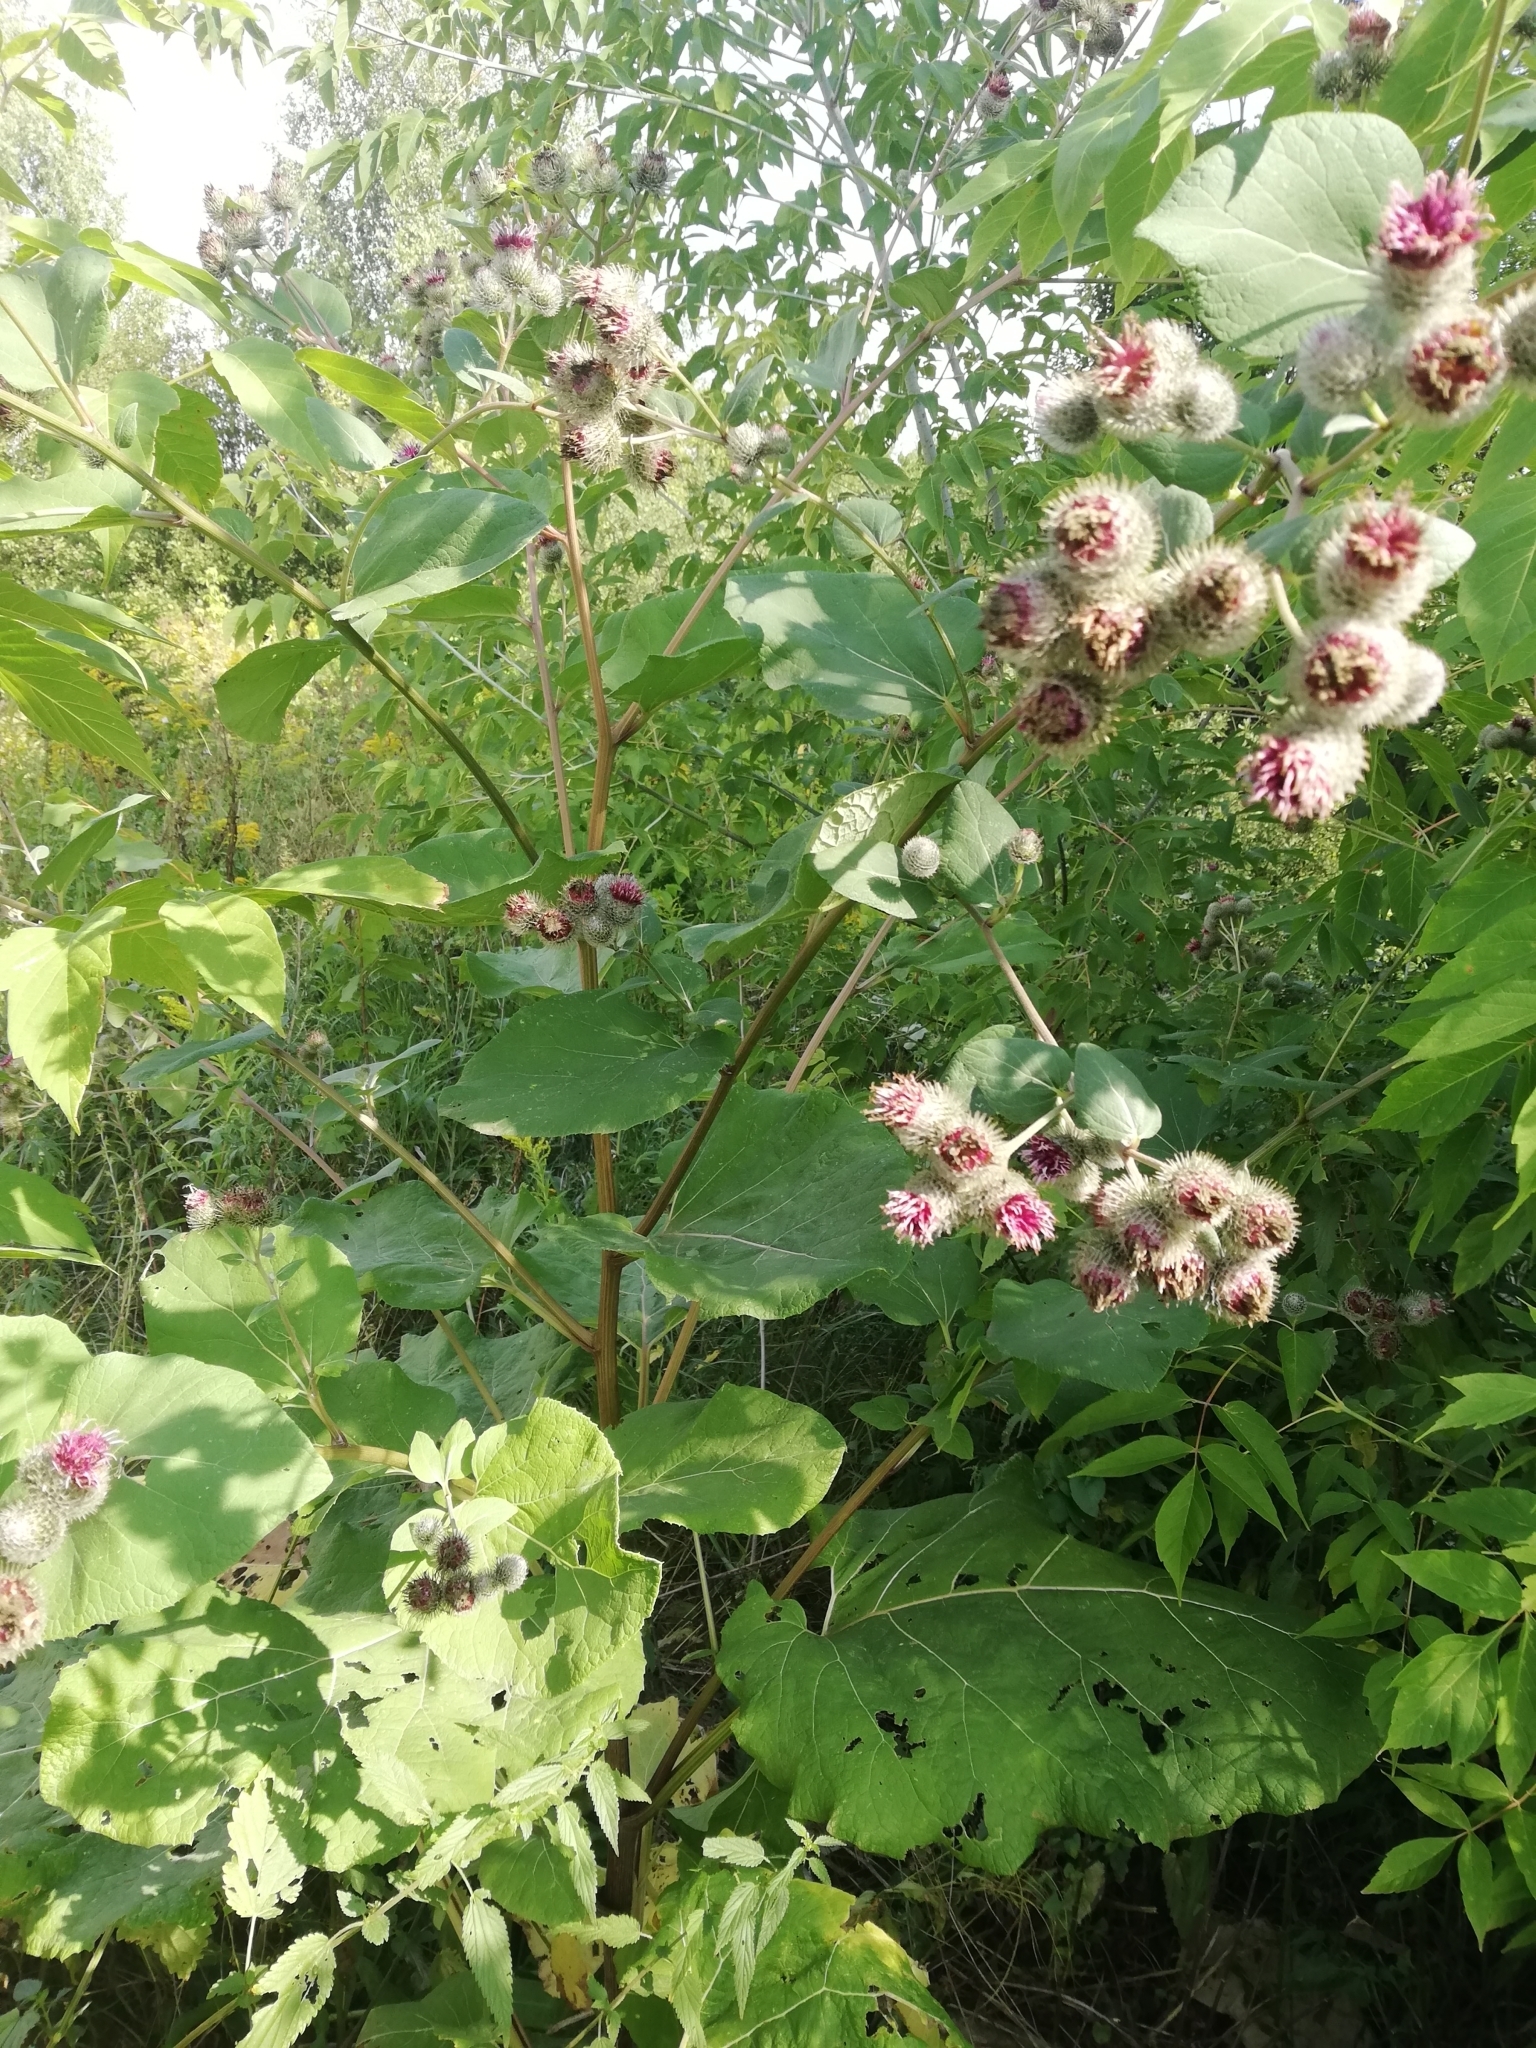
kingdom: Plantae
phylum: Tracheophyta
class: Magnoliopsida
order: Asterales
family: Asteraceae
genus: Arctium
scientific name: Arctium tomentosum
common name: Woolly burdock
